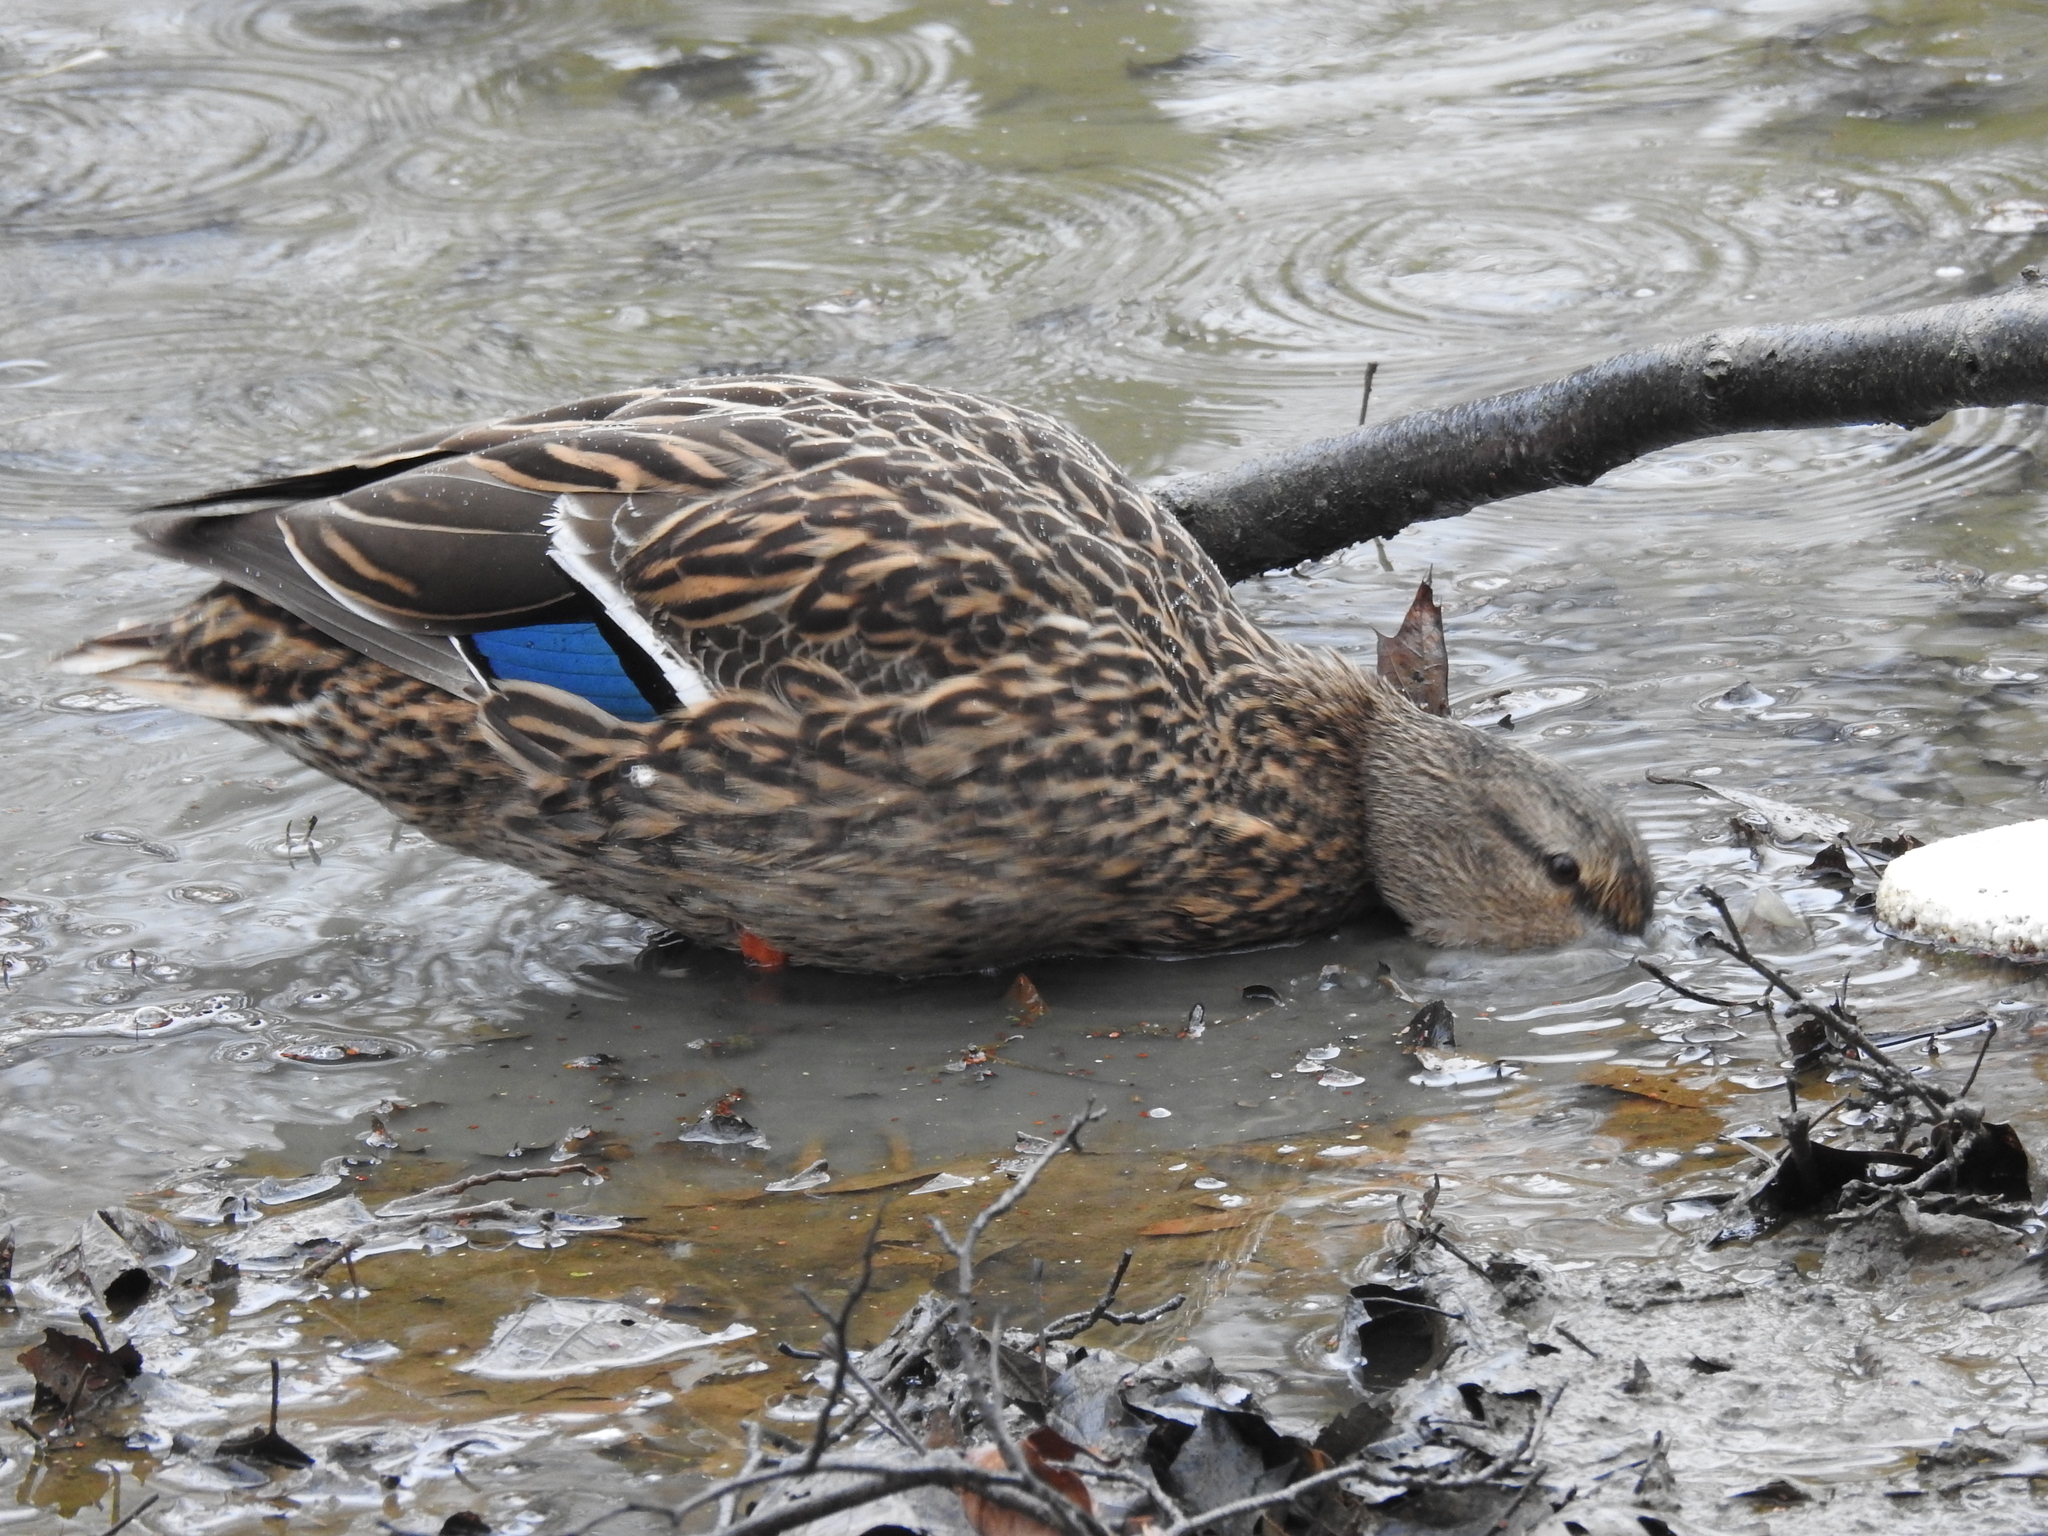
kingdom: Animalia
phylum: Chordata
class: Aves
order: Anseriformes
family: Anatidae
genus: Anas
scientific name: Anas platyrhynchos
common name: Mallard
